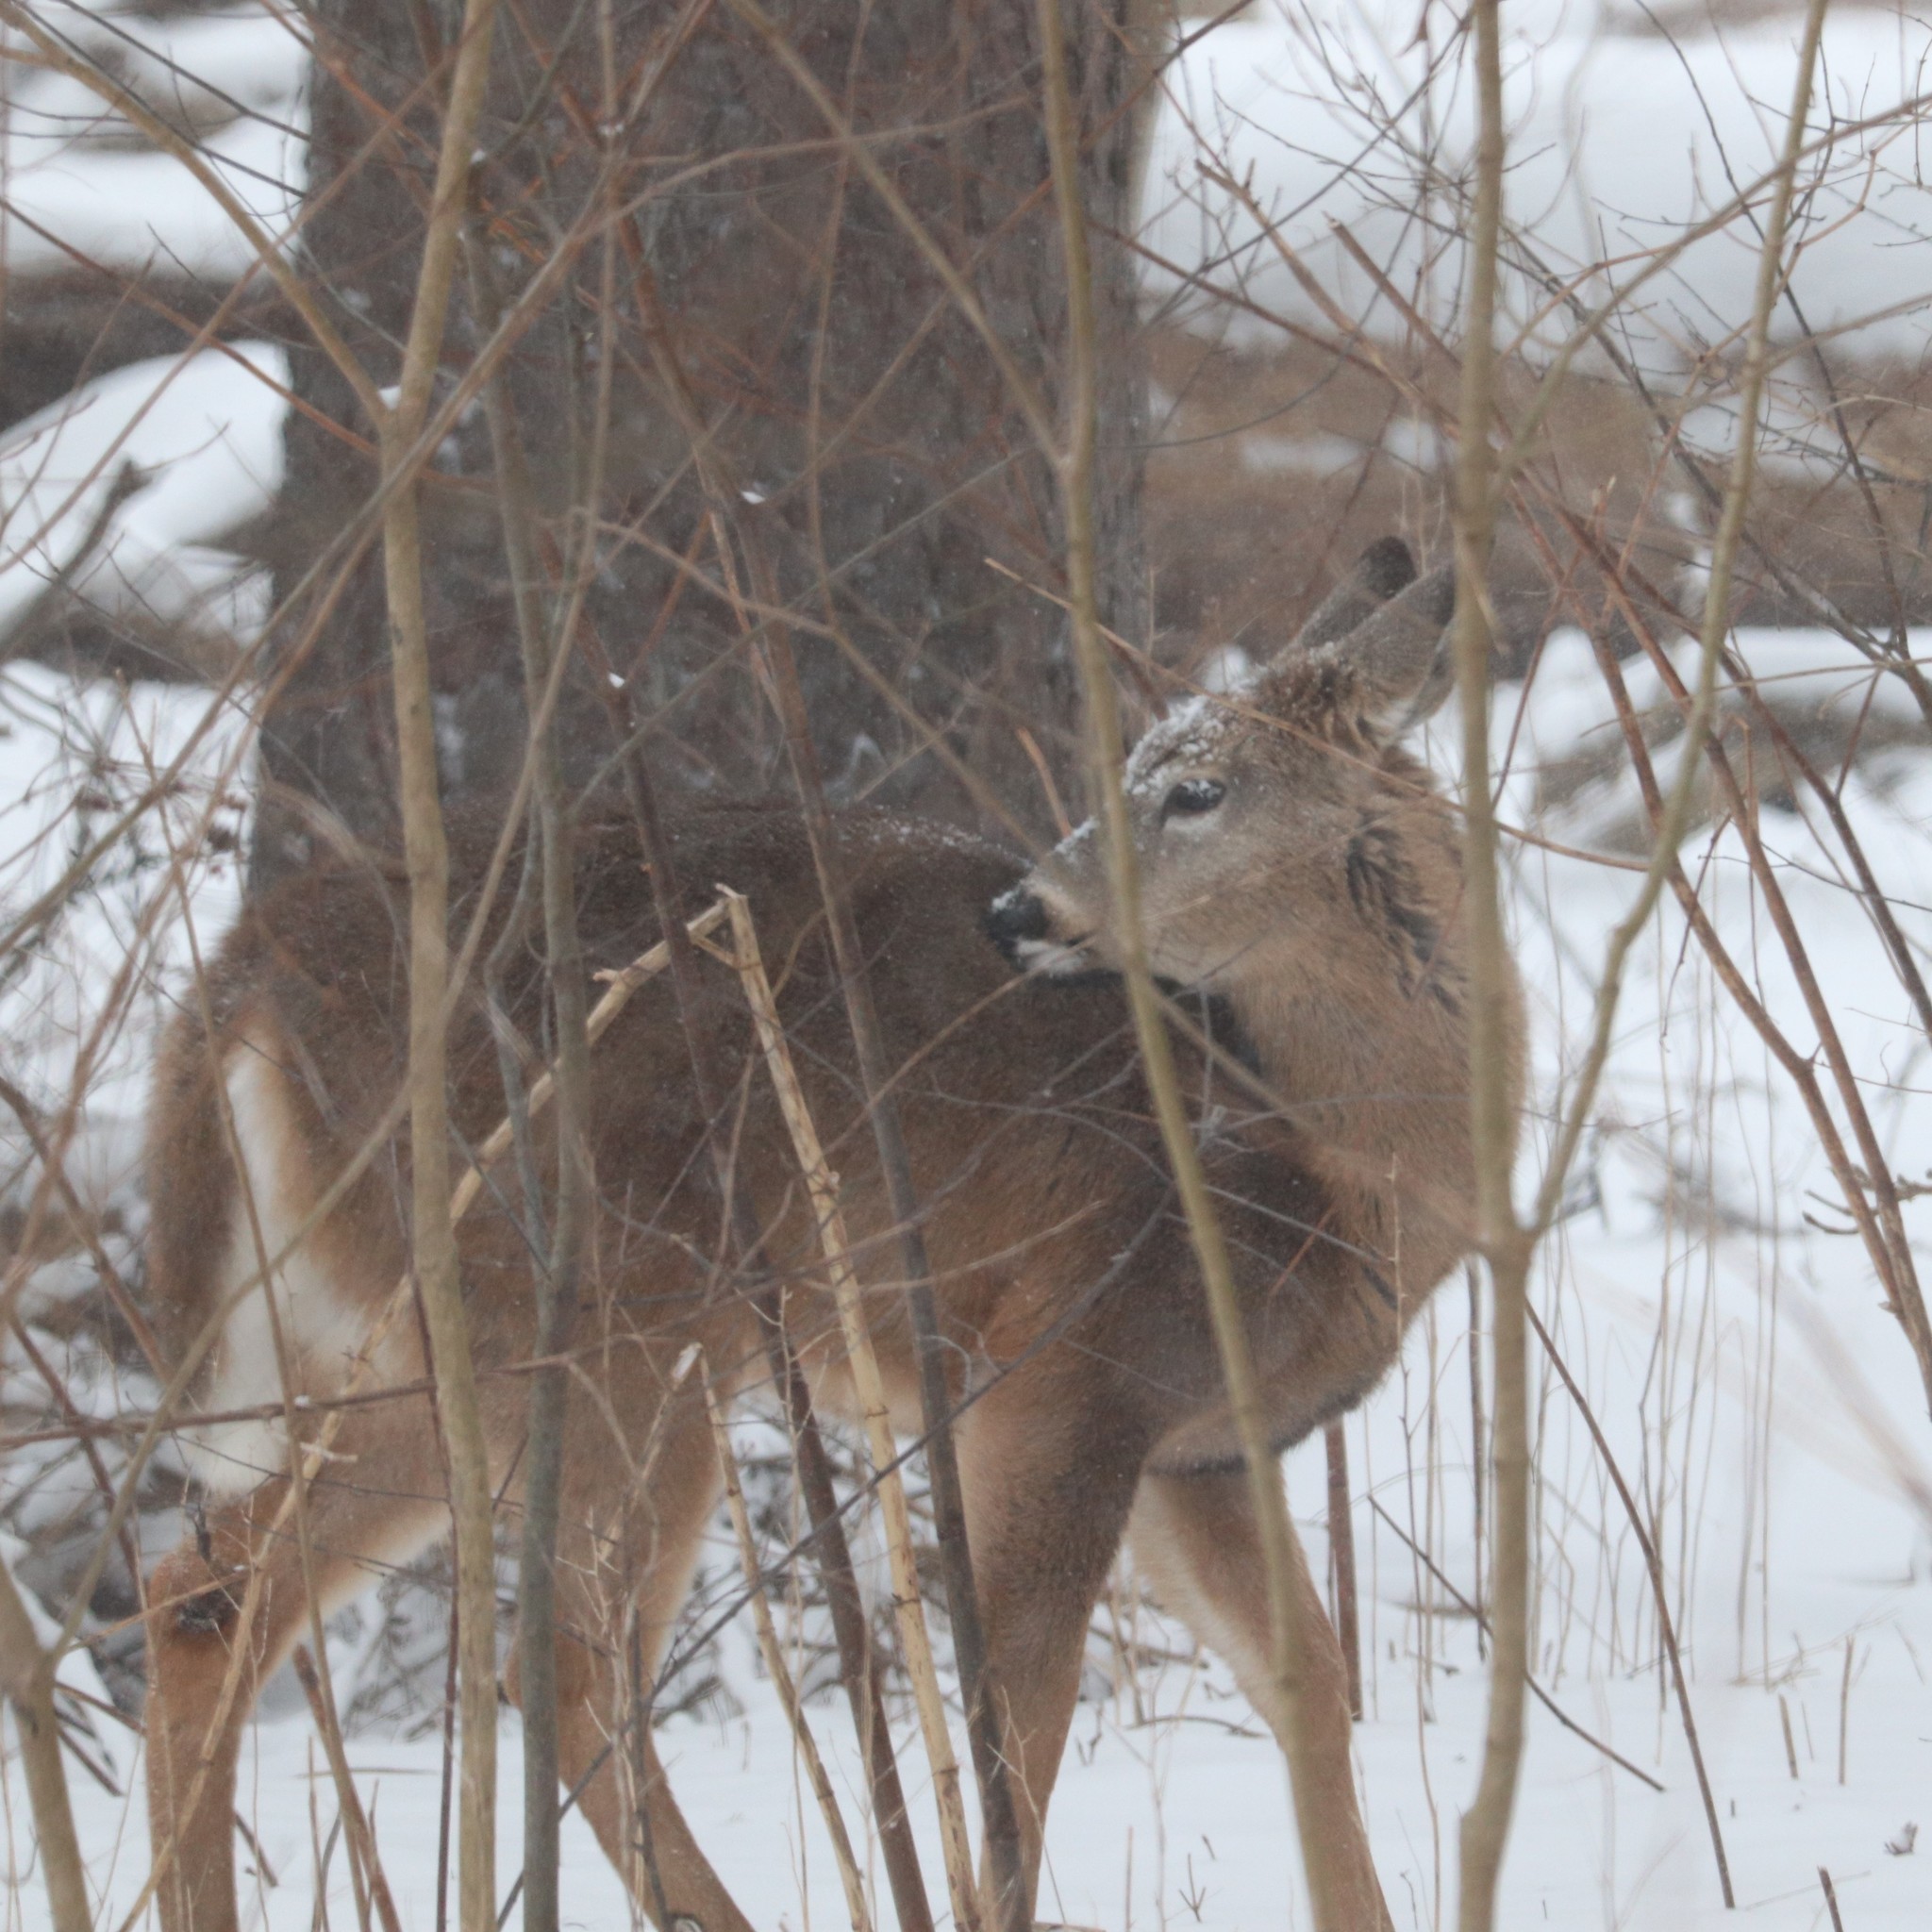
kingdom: Animalia
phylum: Chordata
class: Mammalia
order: Artiodactyla
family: Cervidae
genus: Odocoileus
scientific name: Odocoileus virginianus
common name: White-tailed deer
